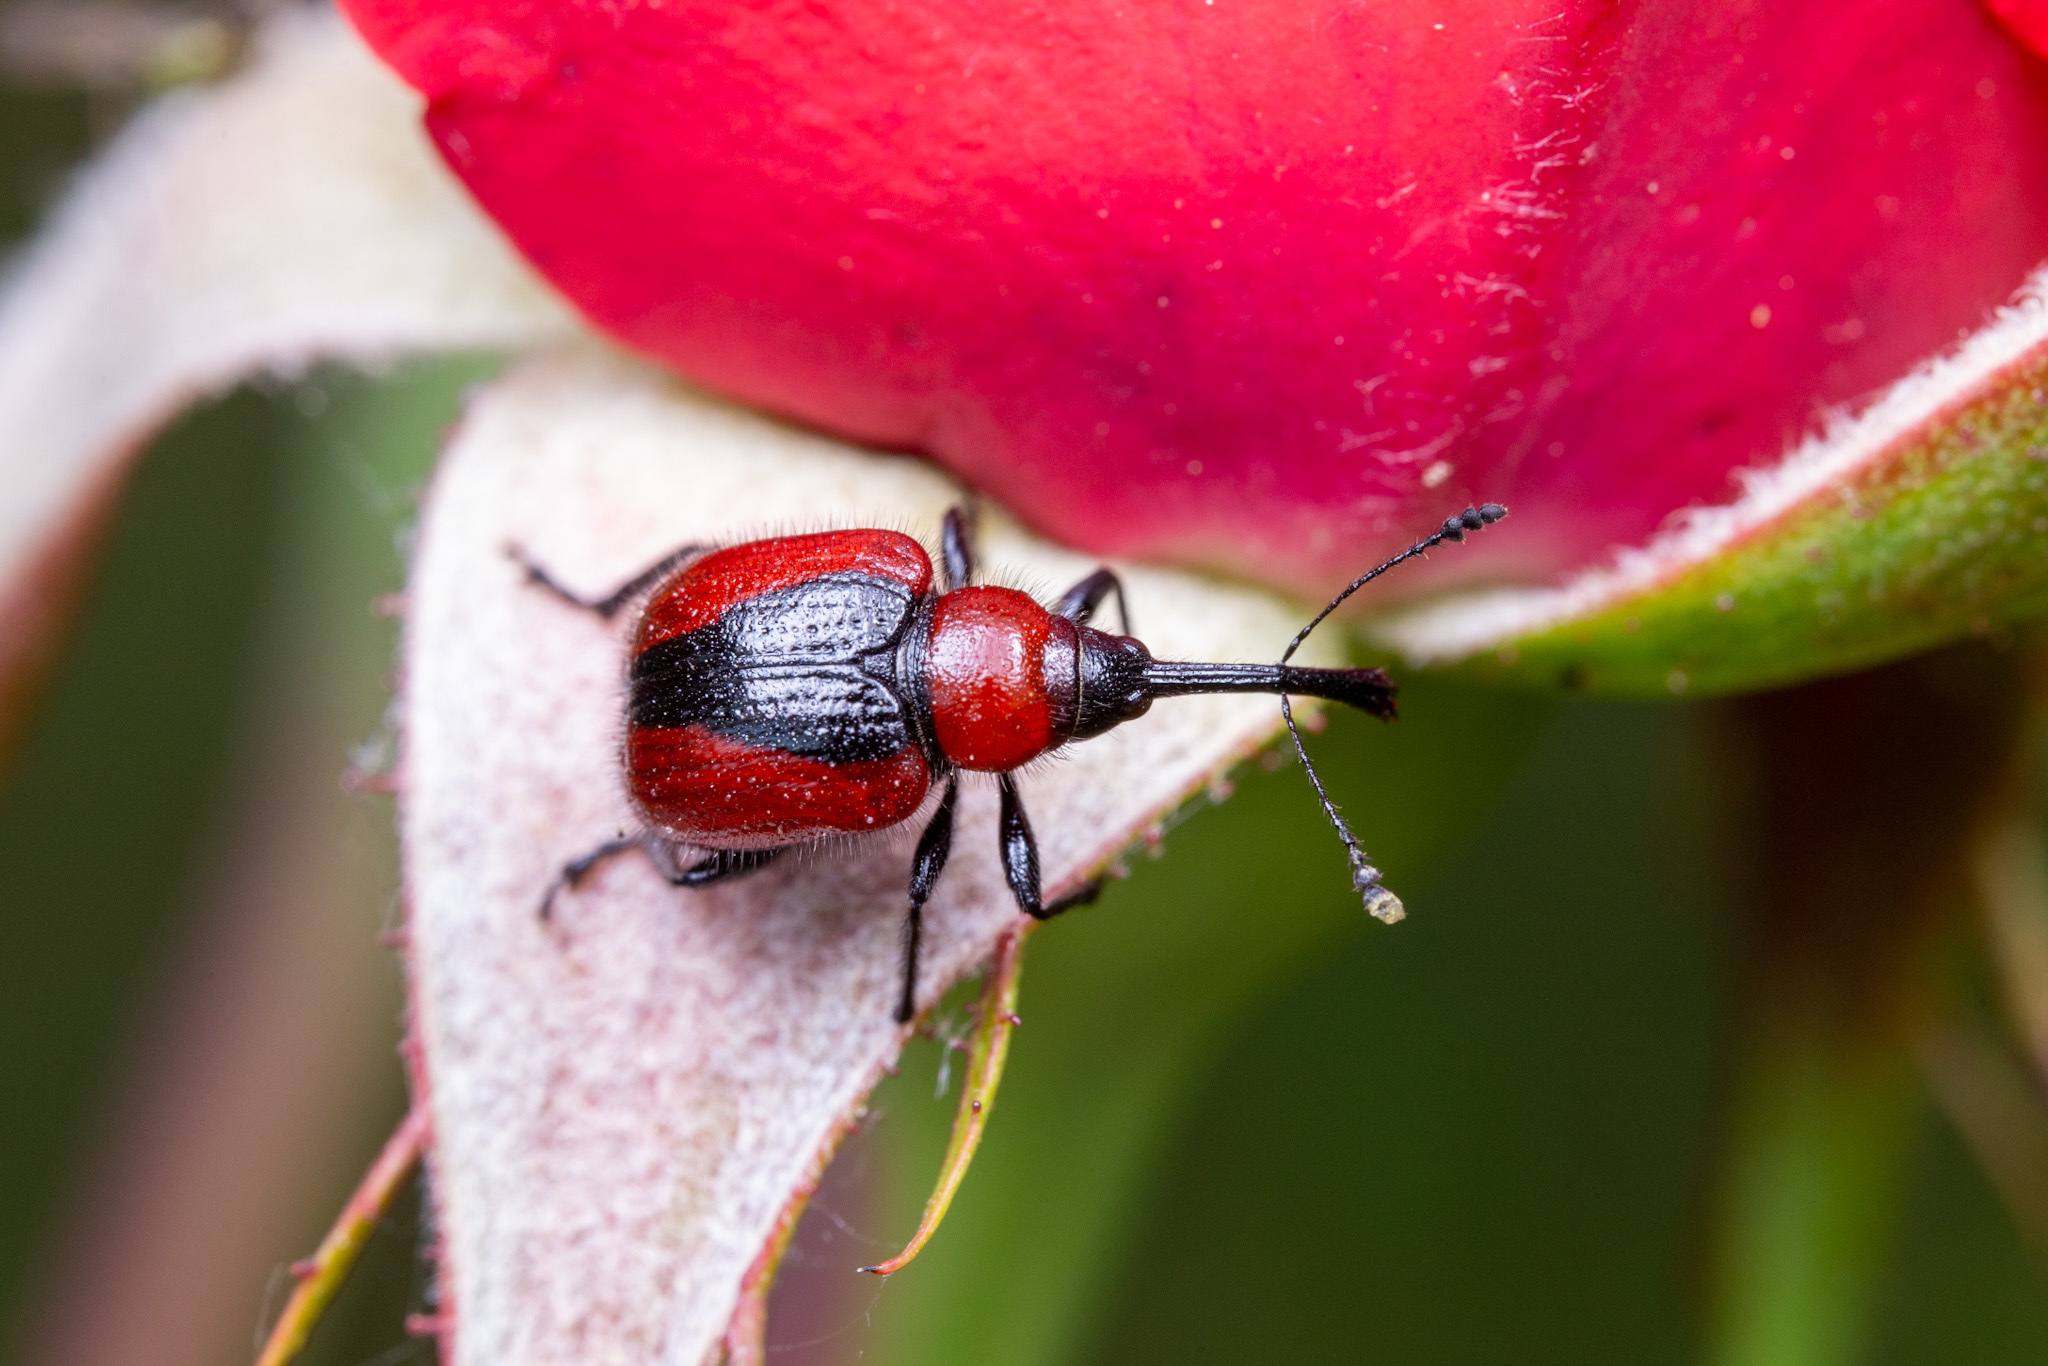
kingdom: Animalia
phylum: Arthropoda
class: Insecta
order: Coleoptera
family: Attelabidae
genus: Mecorhis
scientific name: Mecorhis ungarica
